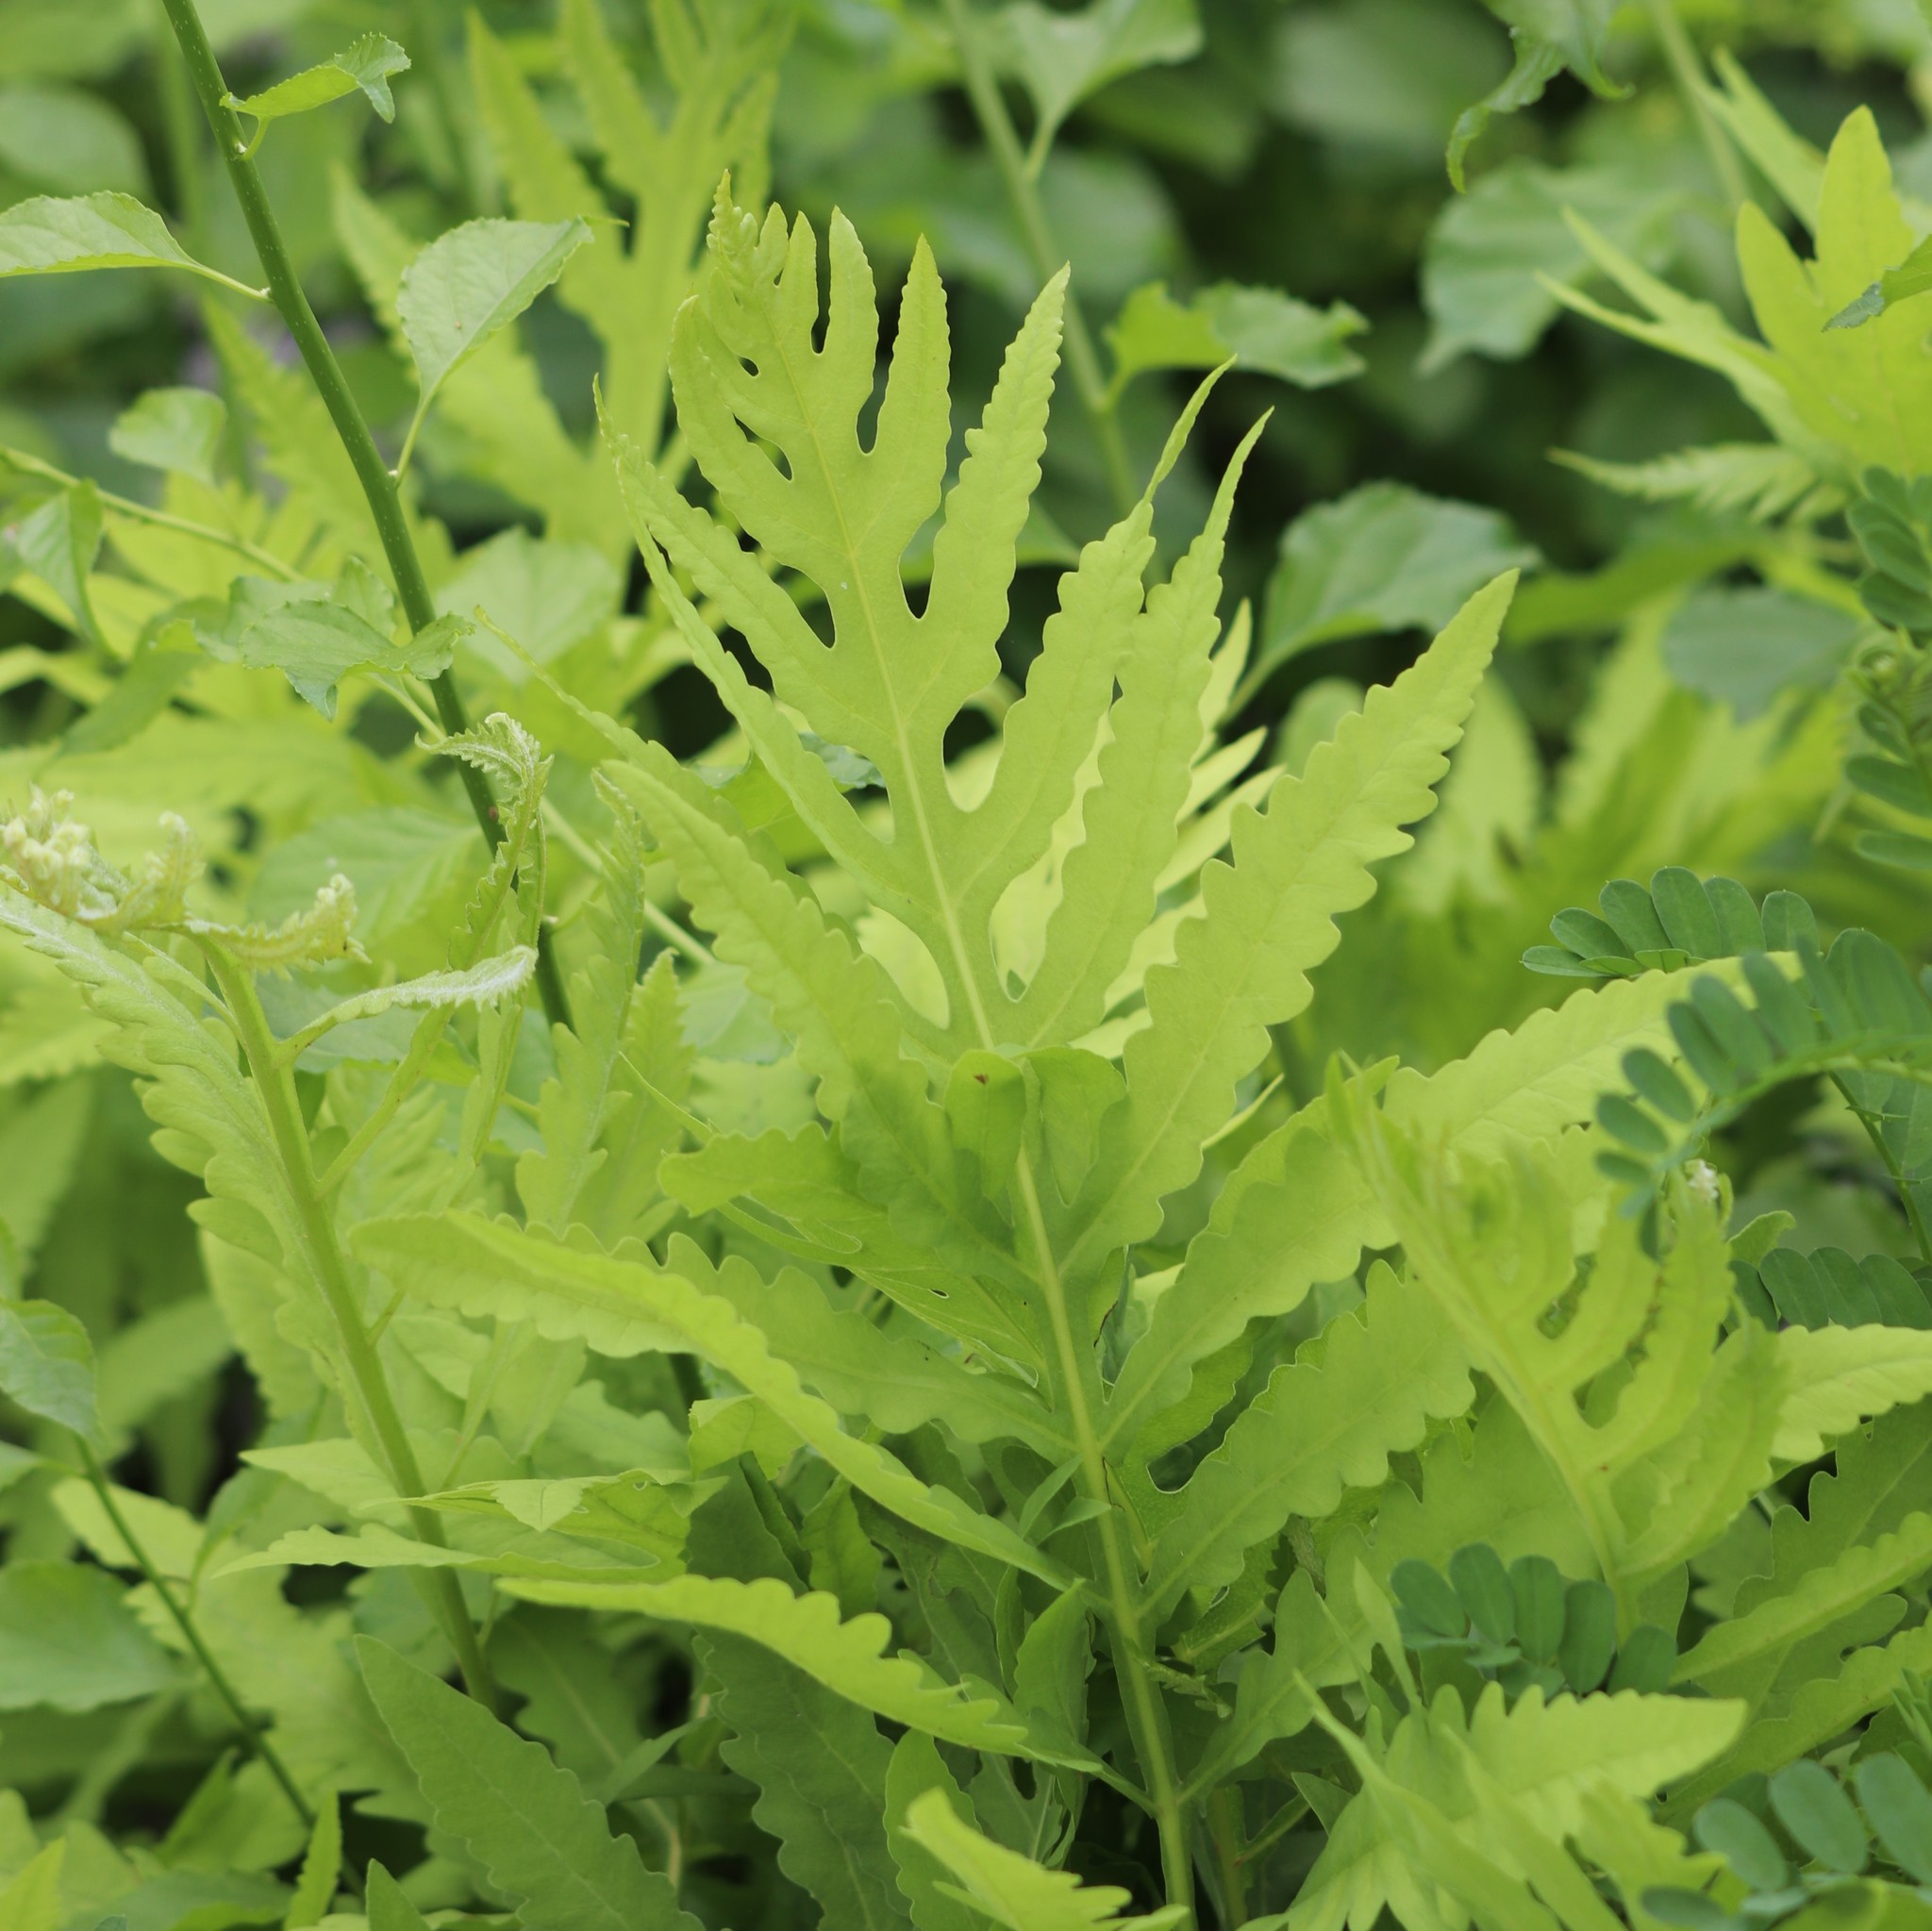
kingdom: Plantae
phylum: Tracheophyta
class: Polypodiopsida
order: Polypodiales
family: Onocleaceae
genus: Onoclea
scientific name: Onoclea sensibilis
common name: Sensitive fern
